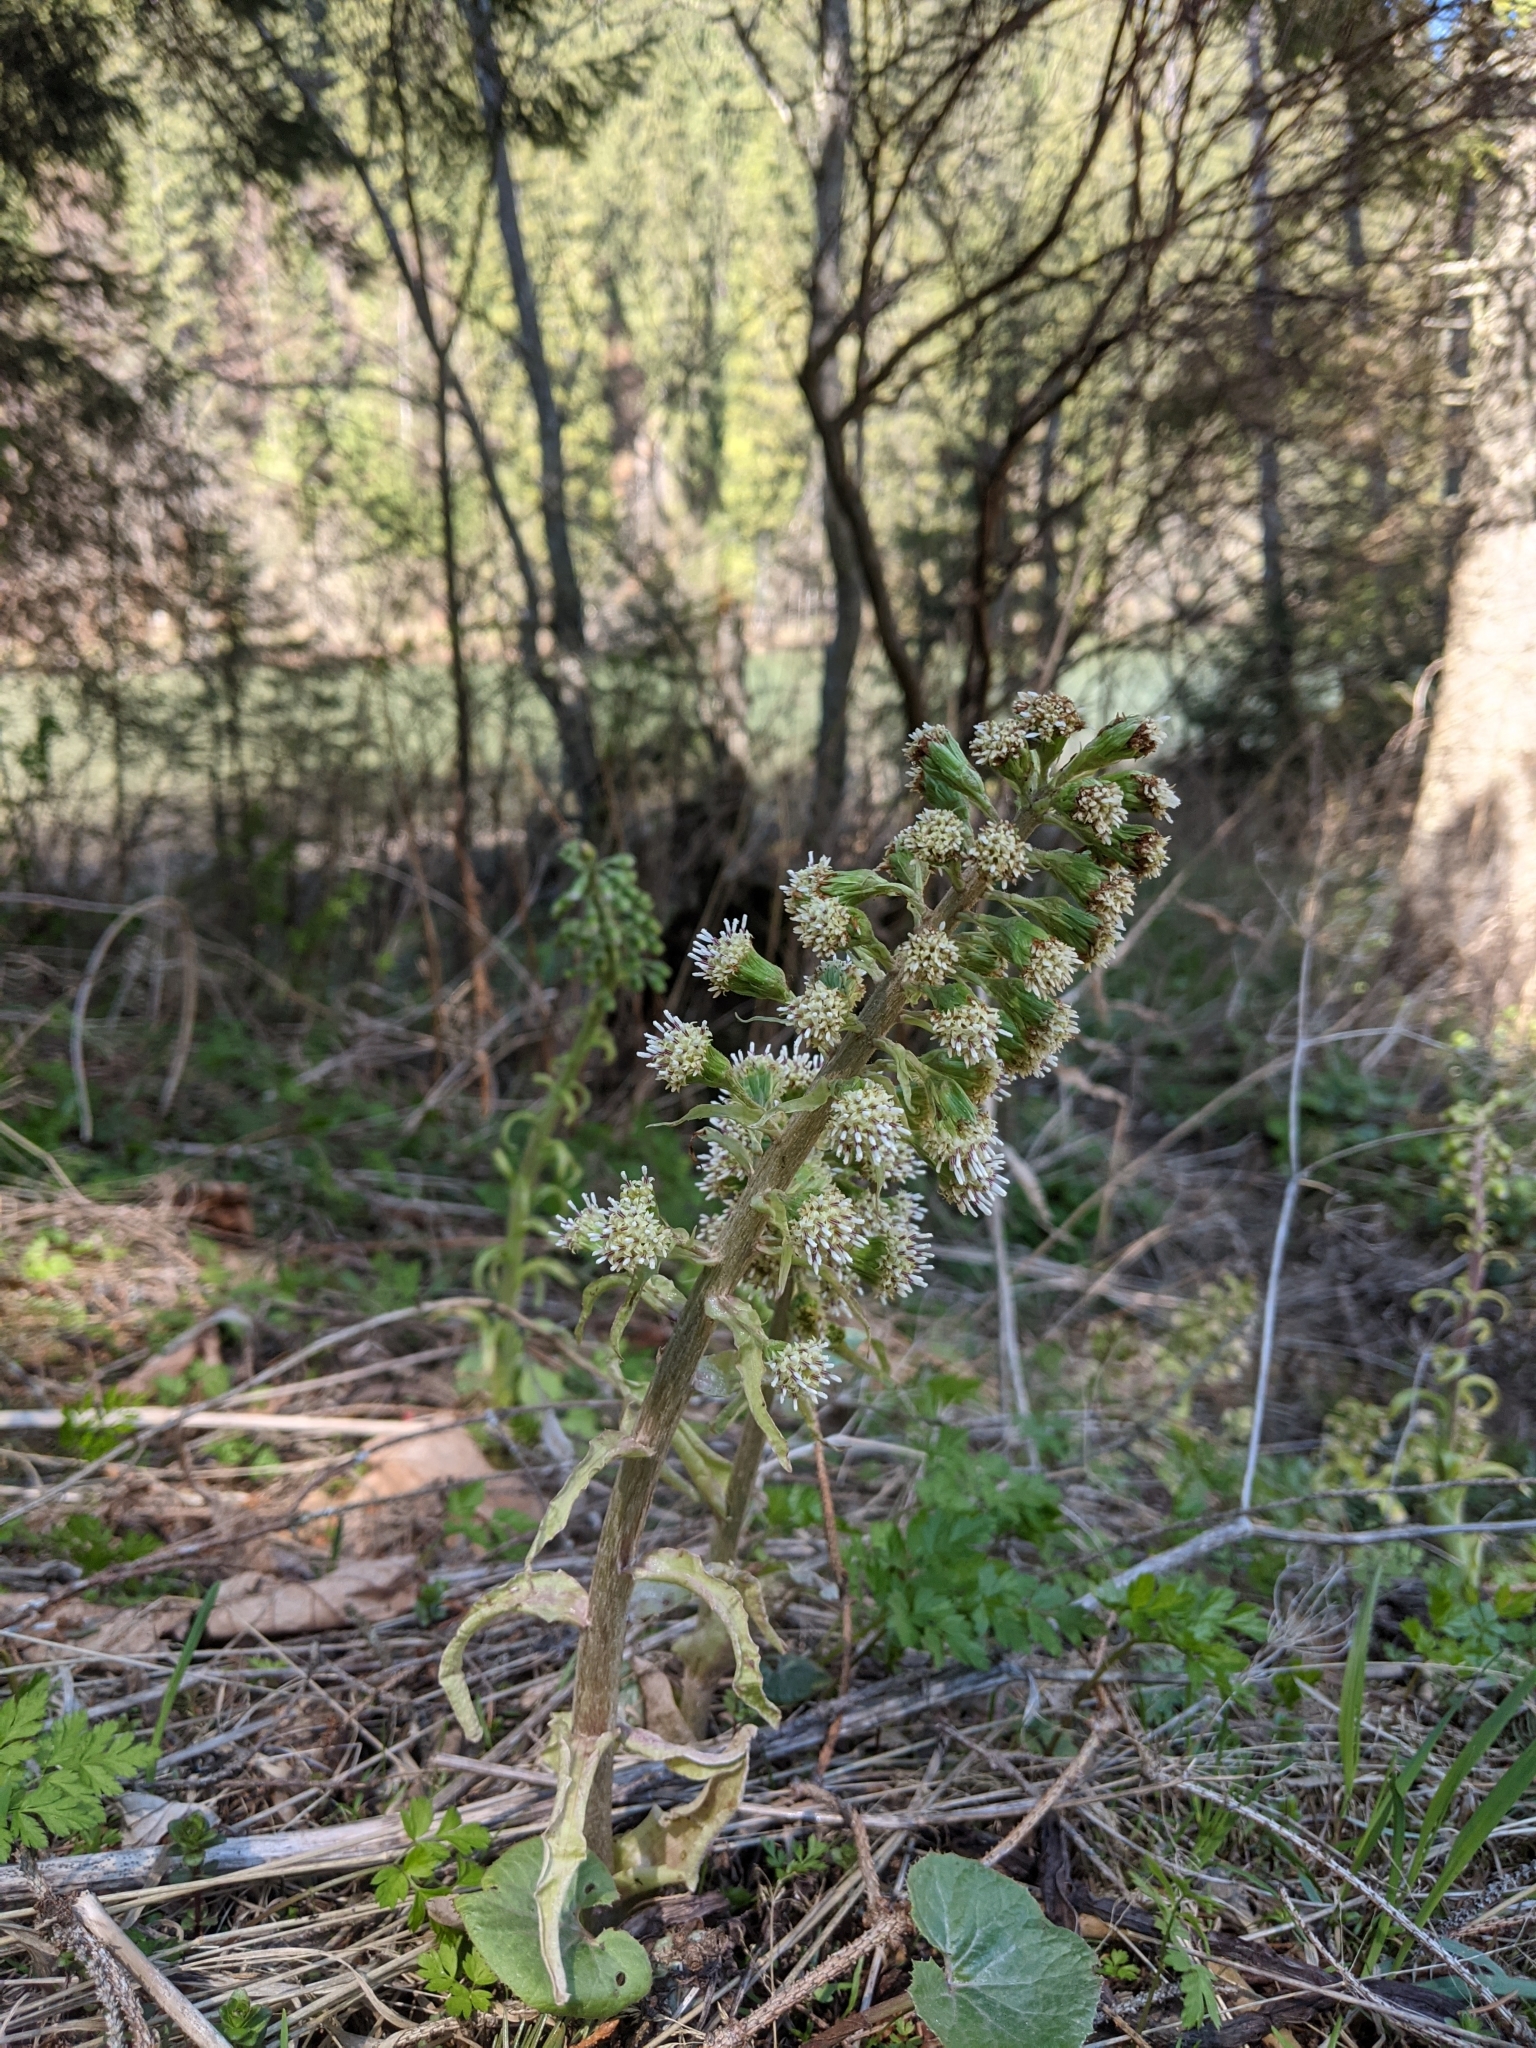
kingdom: Plantae
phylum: Tracheophyta
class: Magnoliopsida
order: Asterales
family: Asteraceae
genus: Petasites
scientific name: Petasites albus
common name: White butterbur
